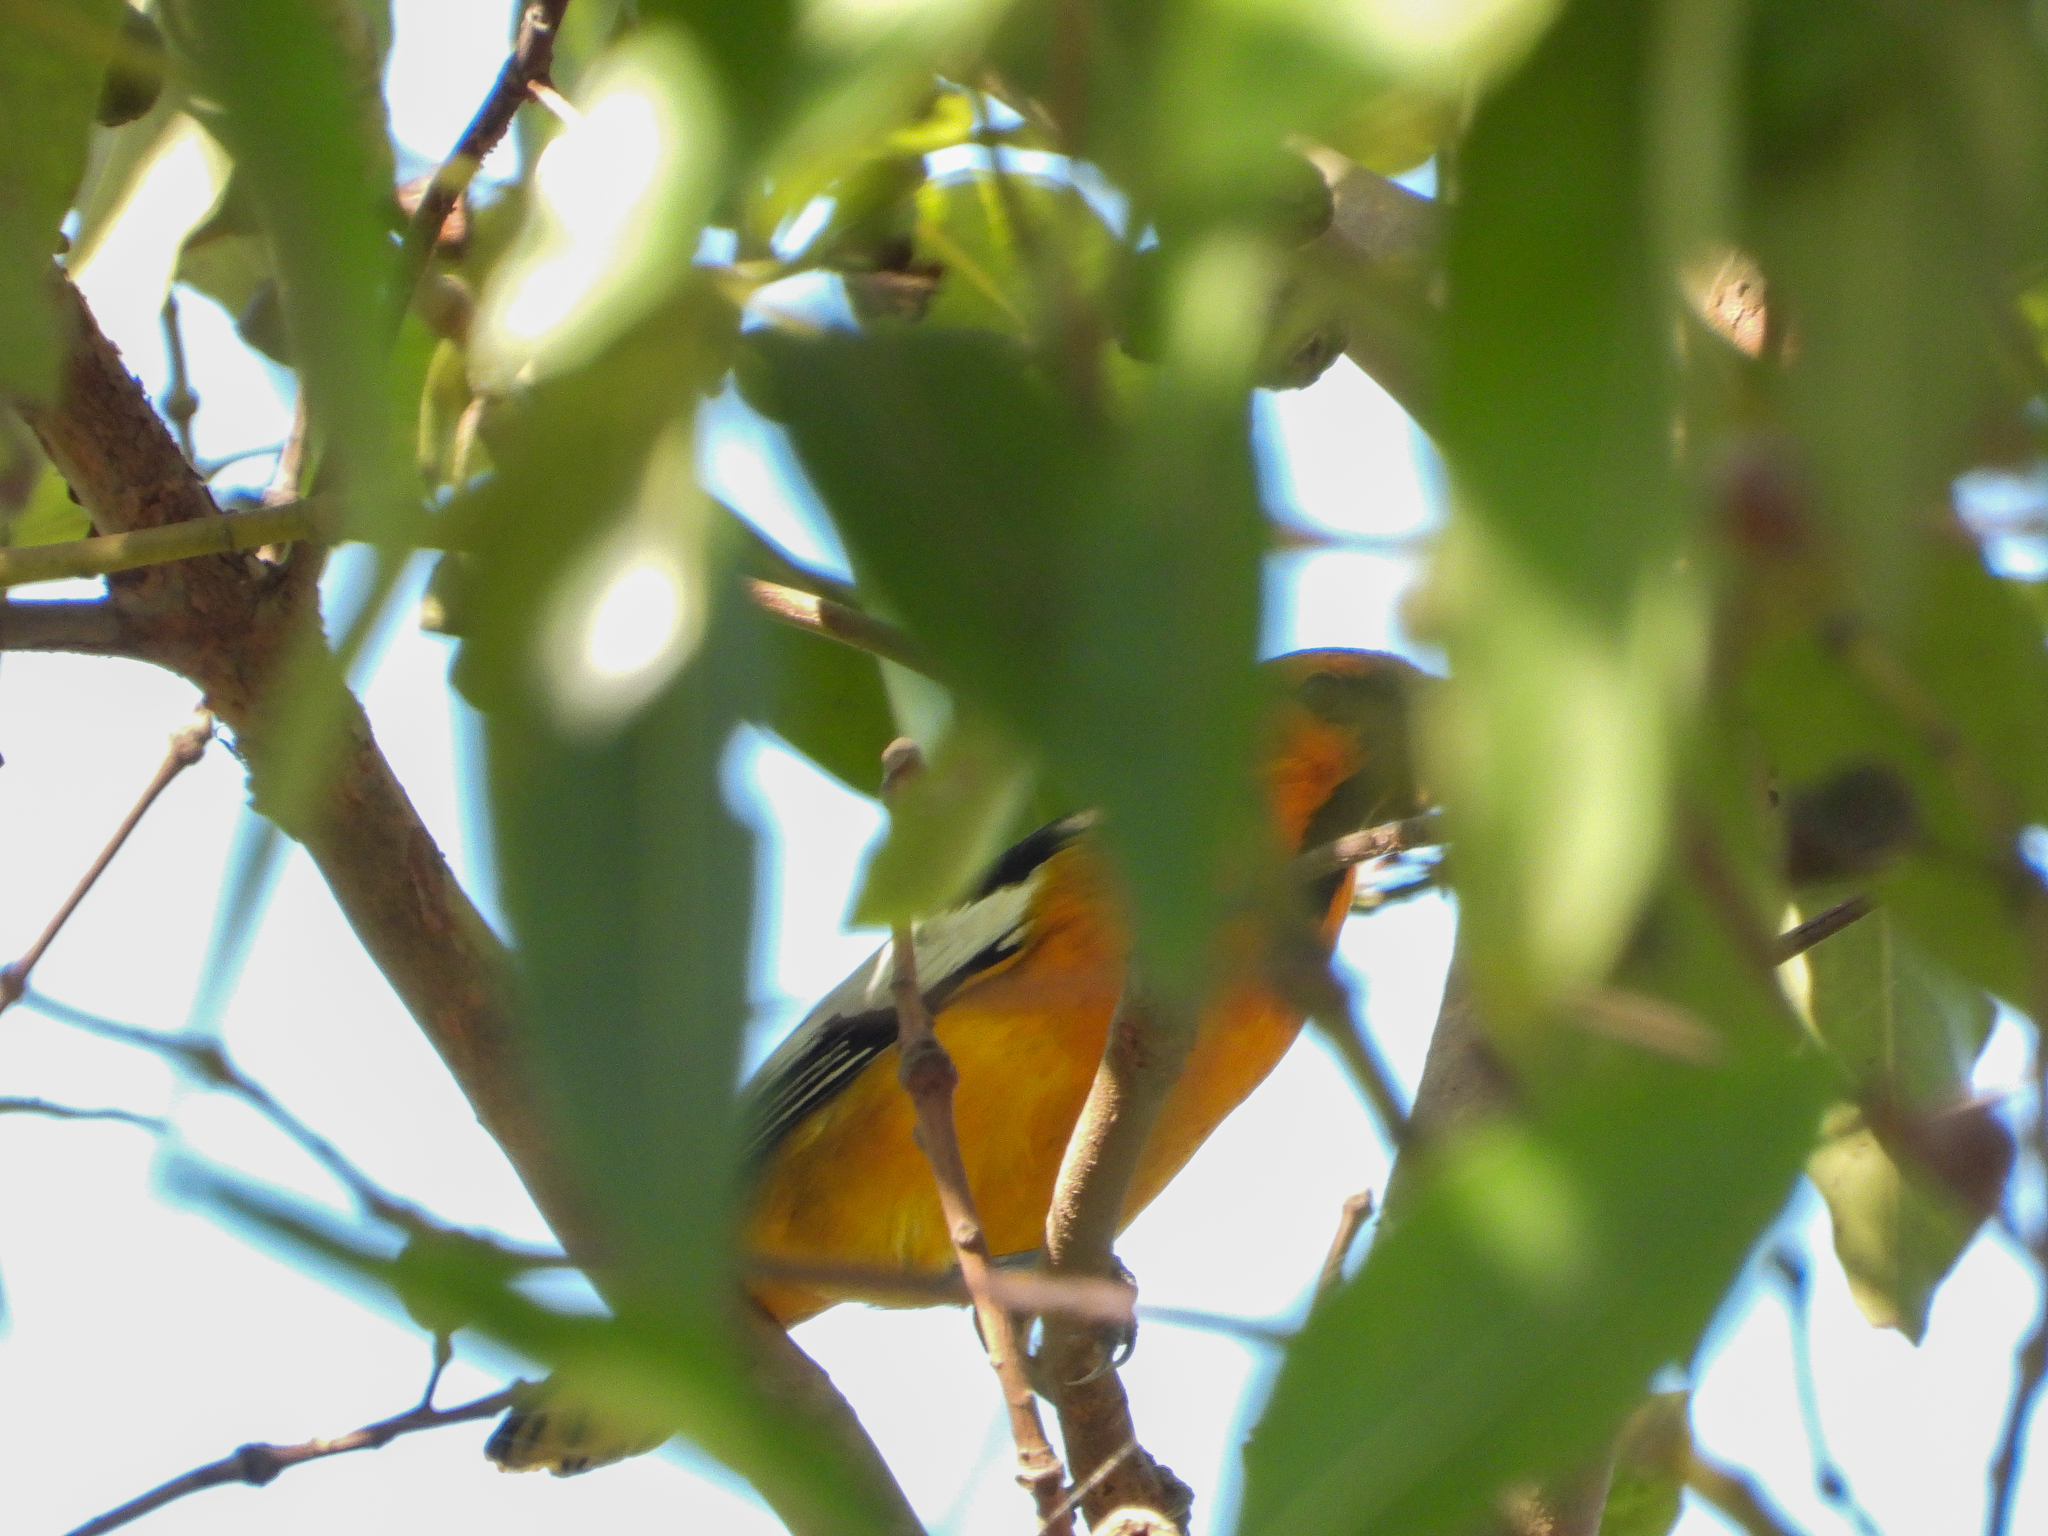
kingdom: Animalia
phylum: Chordata
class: Aves
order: Passeriformes
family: Icteridae
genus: Icterus
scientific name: Icterus bullockii
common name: Bullock's oriole
